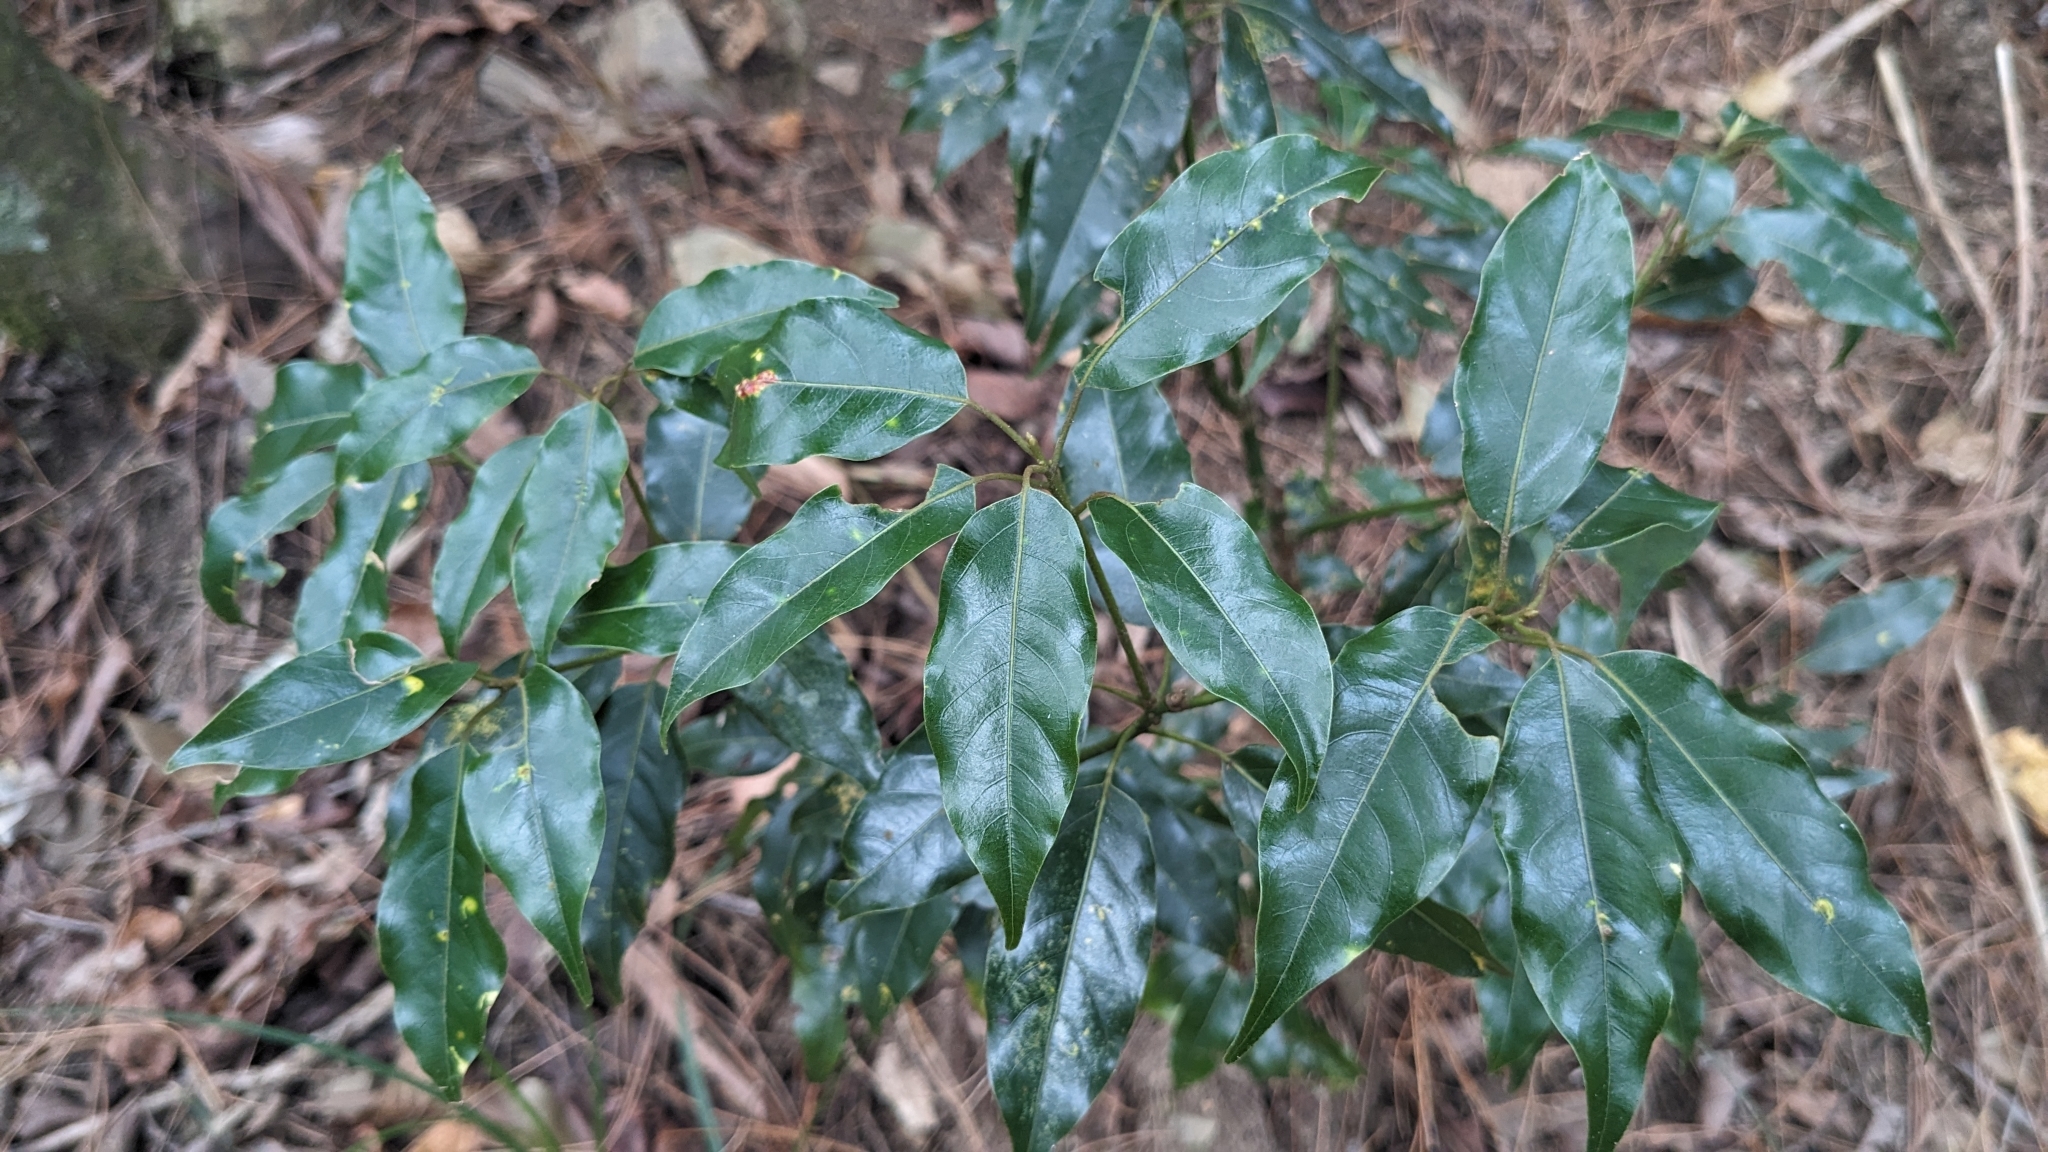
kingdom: Plantae
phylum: Tracheophyta
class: Magnoliopsida
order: Laurales
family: Lauraceae
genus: Neolitsea
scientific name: Neolitsea acuminatissima
